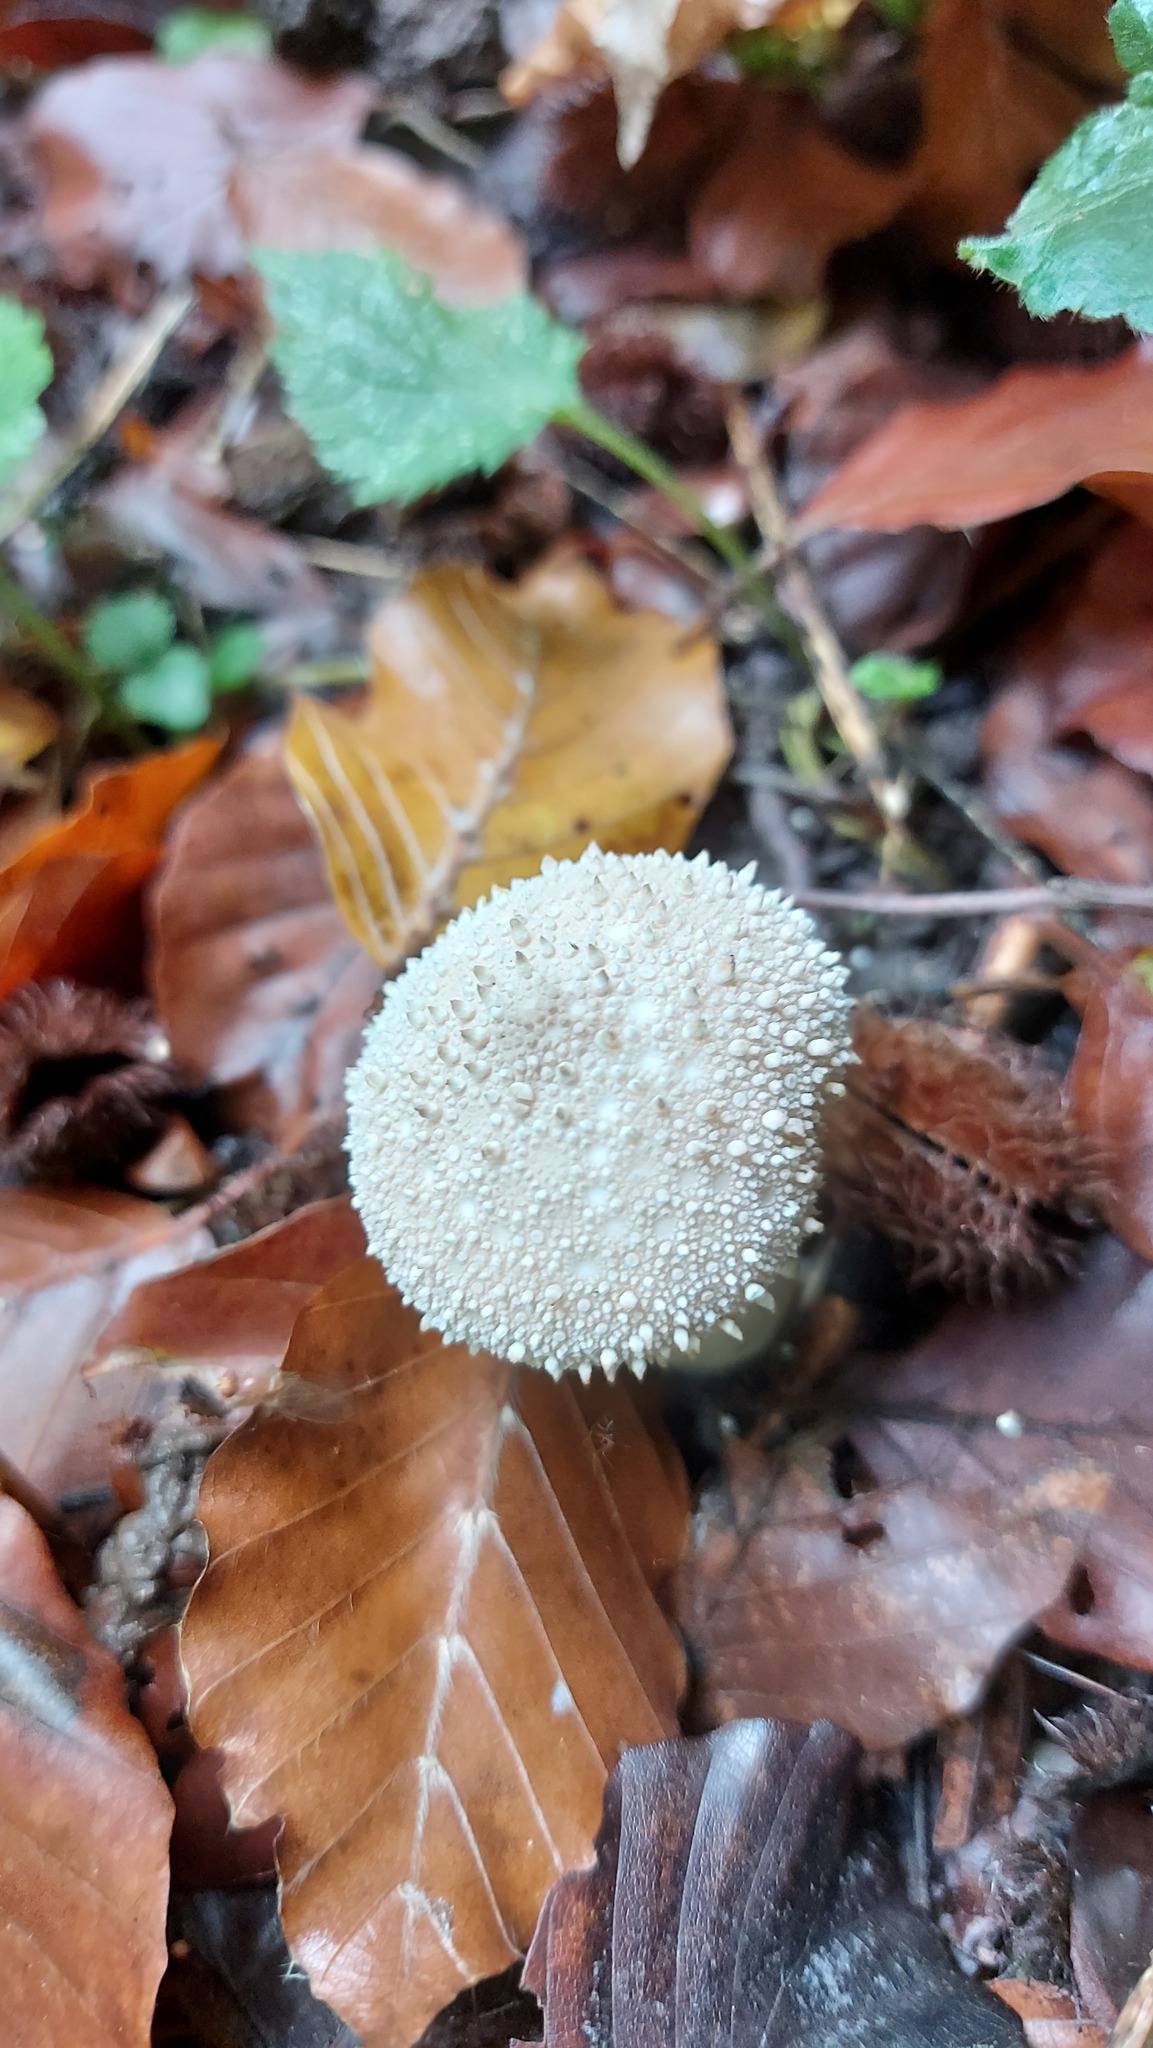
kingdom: Fungi
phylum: Basidiomycota
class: Agaricomycetes
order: Agaricales
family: Lycoperdaceae
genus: Lycoperdon
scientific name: Lycoperdon perlatum
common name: Common puffball
